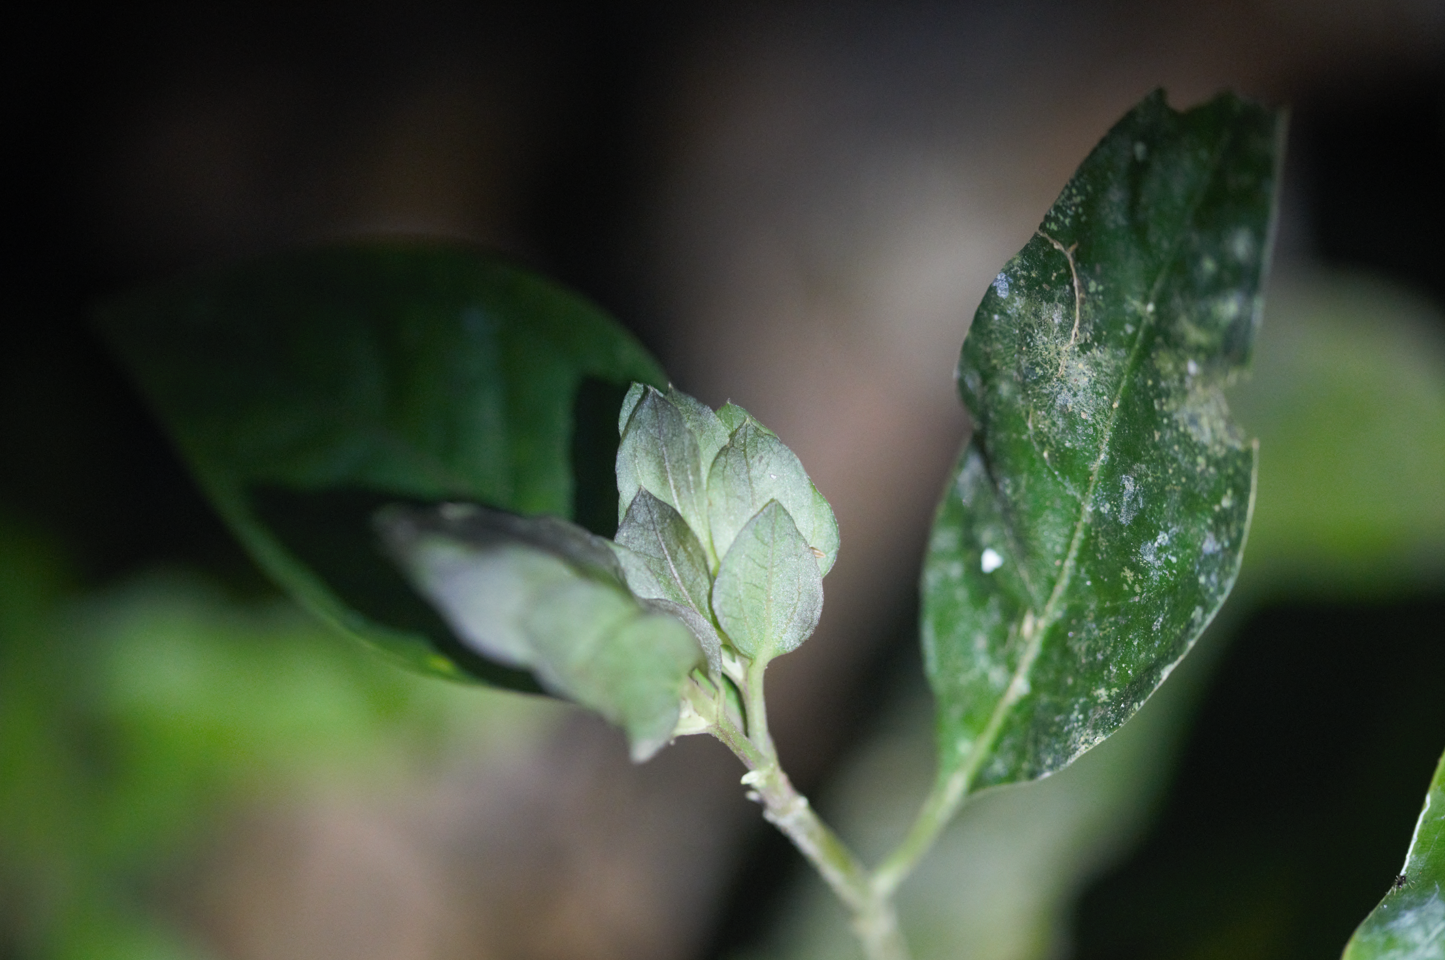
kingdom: Plantae
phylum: Tracheophyta
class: Magnoliopsida
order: Lamiales
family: Acanthaceae
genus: Herpetacanthus
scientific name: Herpetacanthus rotundatus
